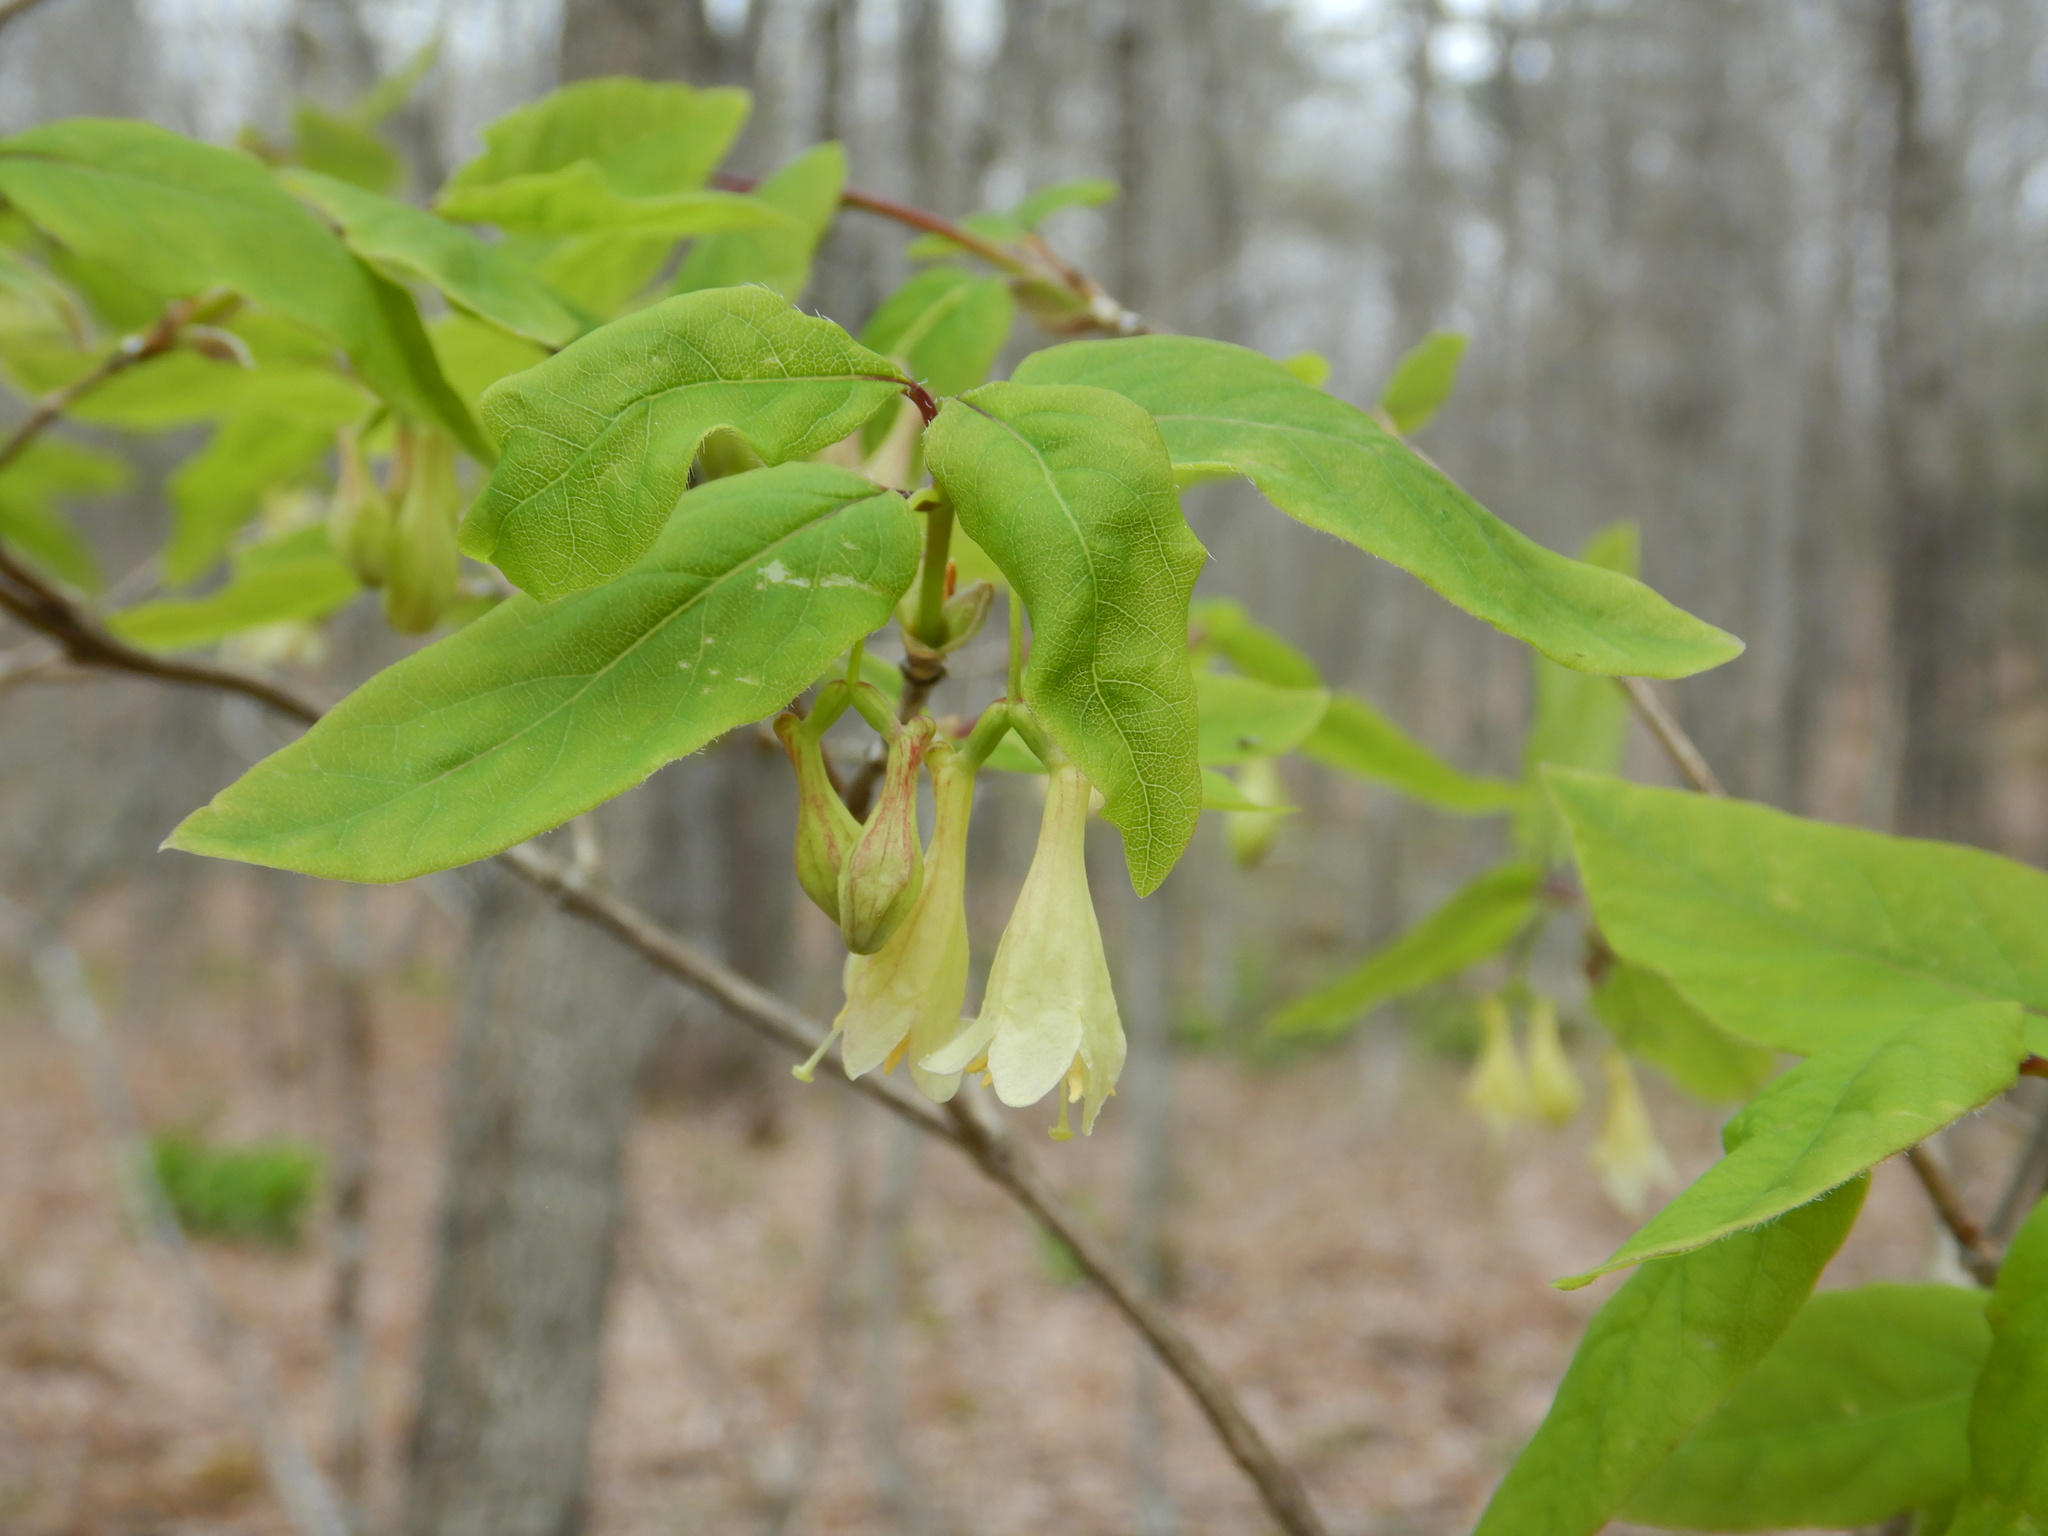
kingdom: Plantae
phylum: Tracheophyta
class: Magnoliopsida
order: Dipsacales
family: Caprifoliaceae
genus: Lonicera
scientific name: Lonicera canadensis
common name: American fly-honeysuckle
